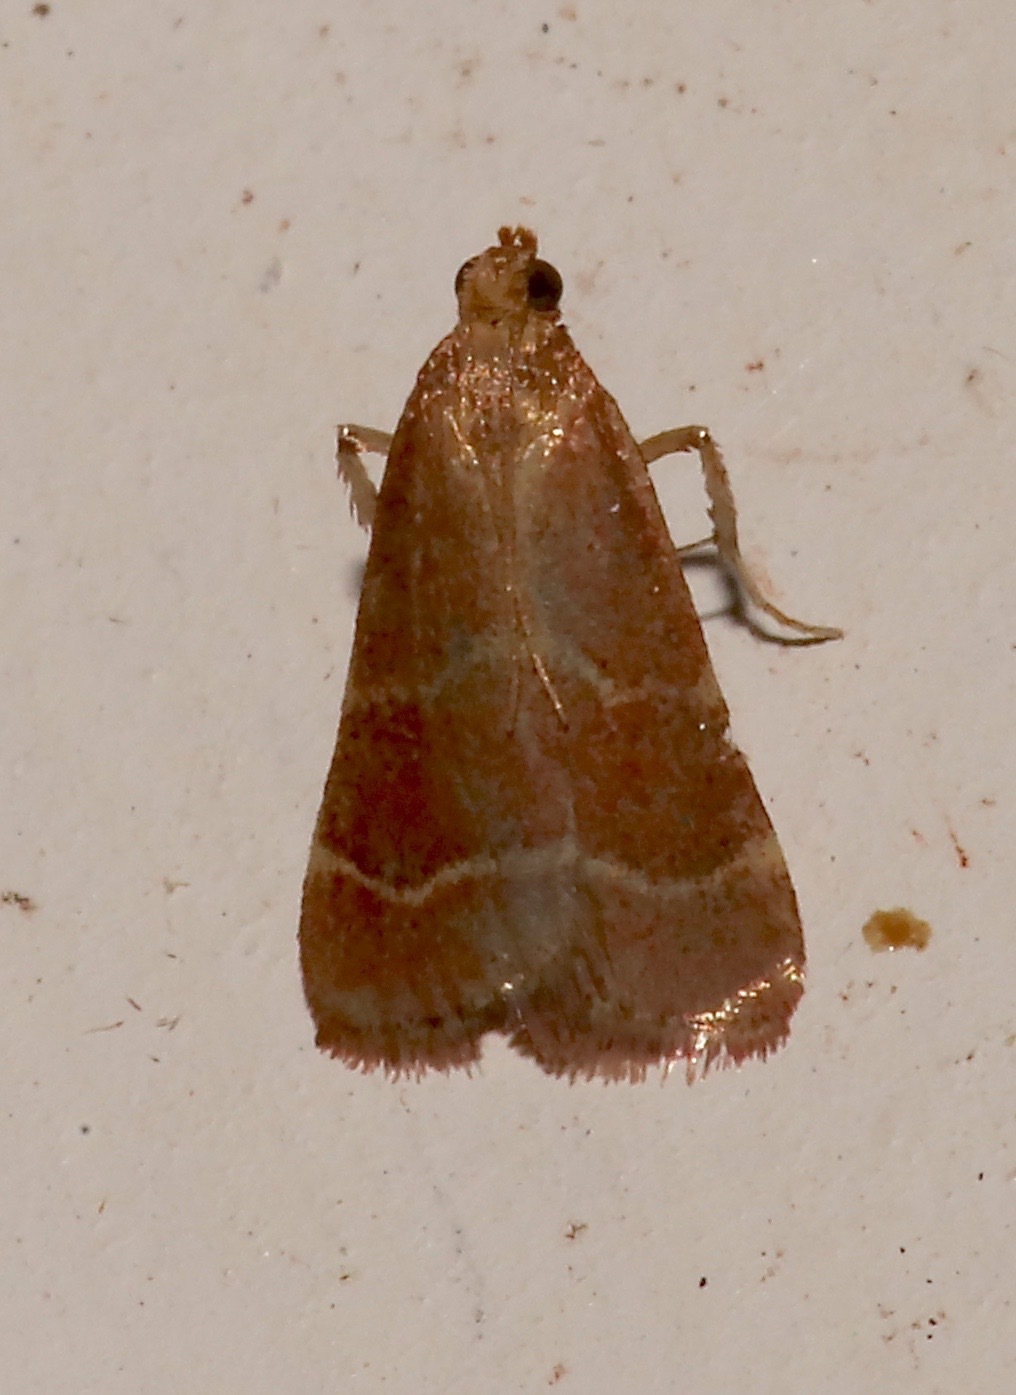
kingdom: Animalia
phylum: Arthropoda
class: Insecta
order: Lepidoptera
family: Pyralidae
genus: Arta
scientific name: Arta statalis
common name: Posturing arta moth
